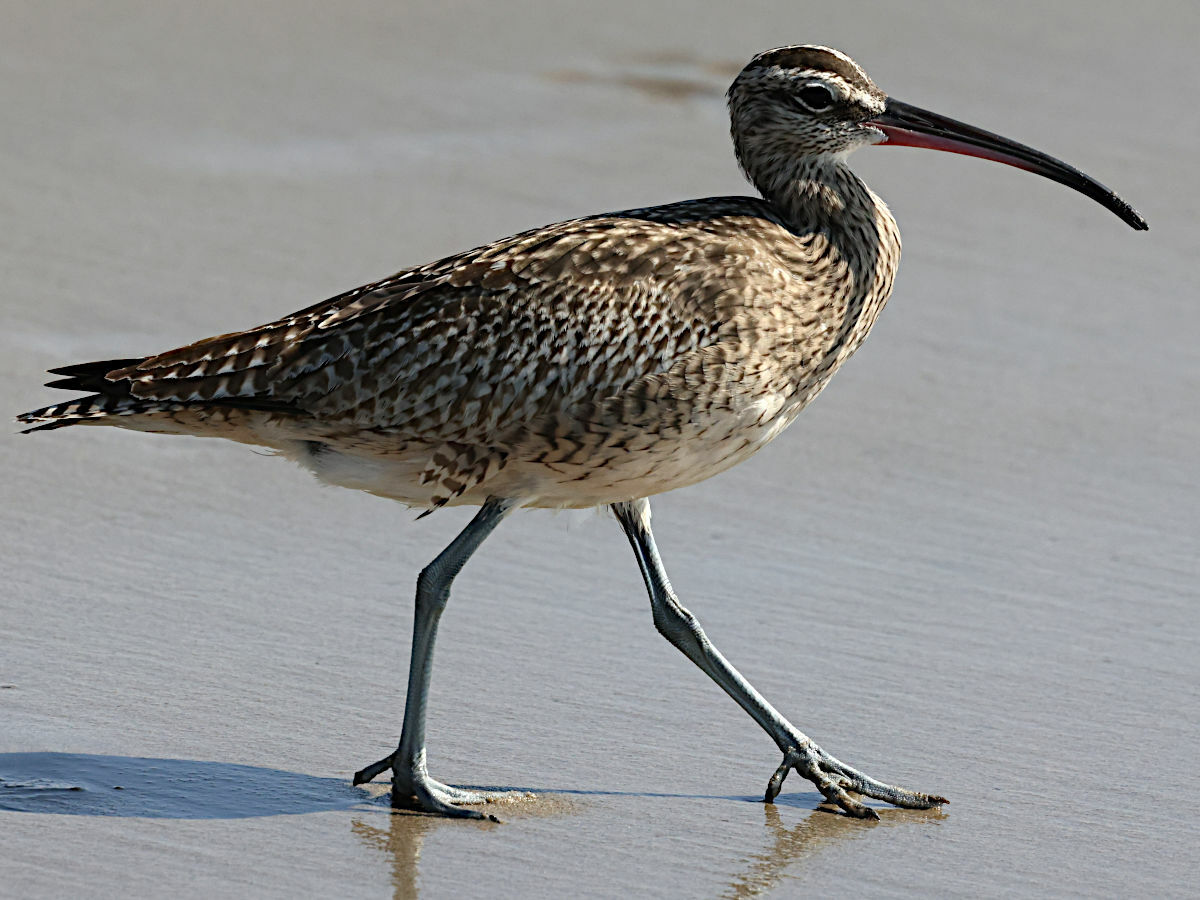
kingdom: Animalia
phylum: Chordata
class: Aves
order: Charadriiformes
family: Scolopacidae
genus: Numenius
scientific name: Numenius phaeopus
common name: Whimbrel
